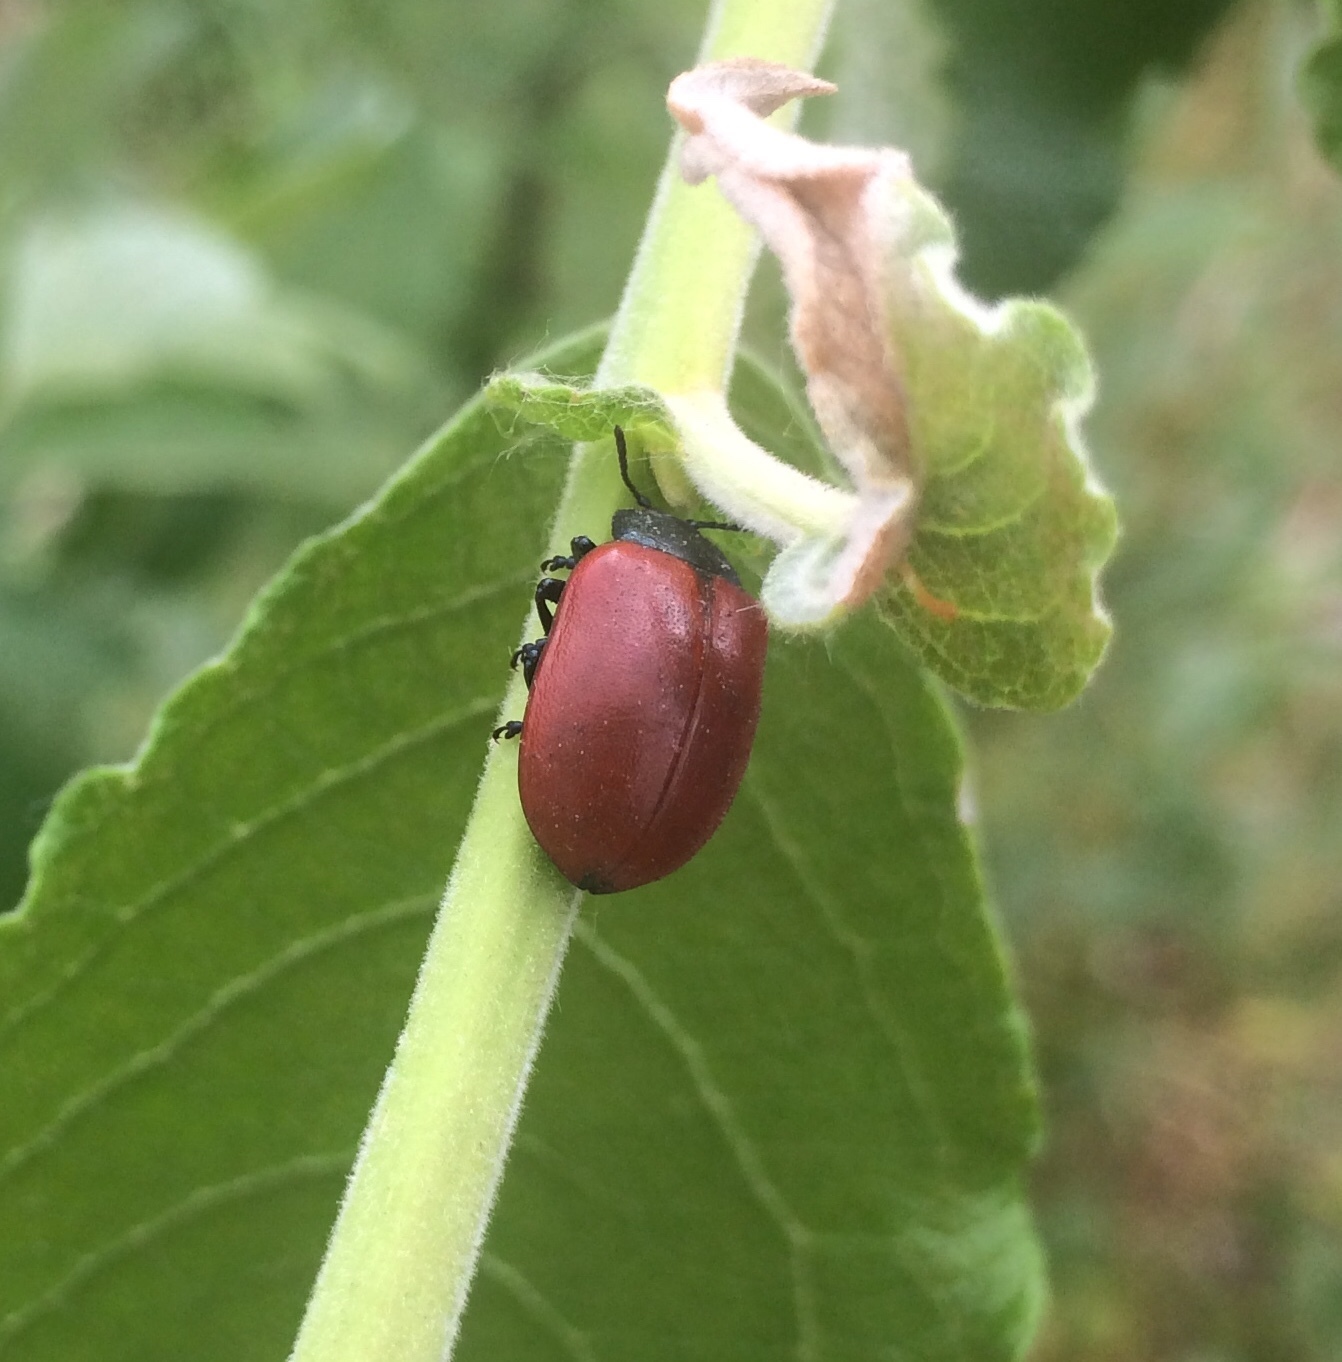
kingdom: Animalia
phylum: Arthropoda
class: Insecta
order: Coleoptera
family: Chrysomelidae
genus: Chrysomela
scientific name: Chrysomela populi
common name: Red poplar leaf beetle
